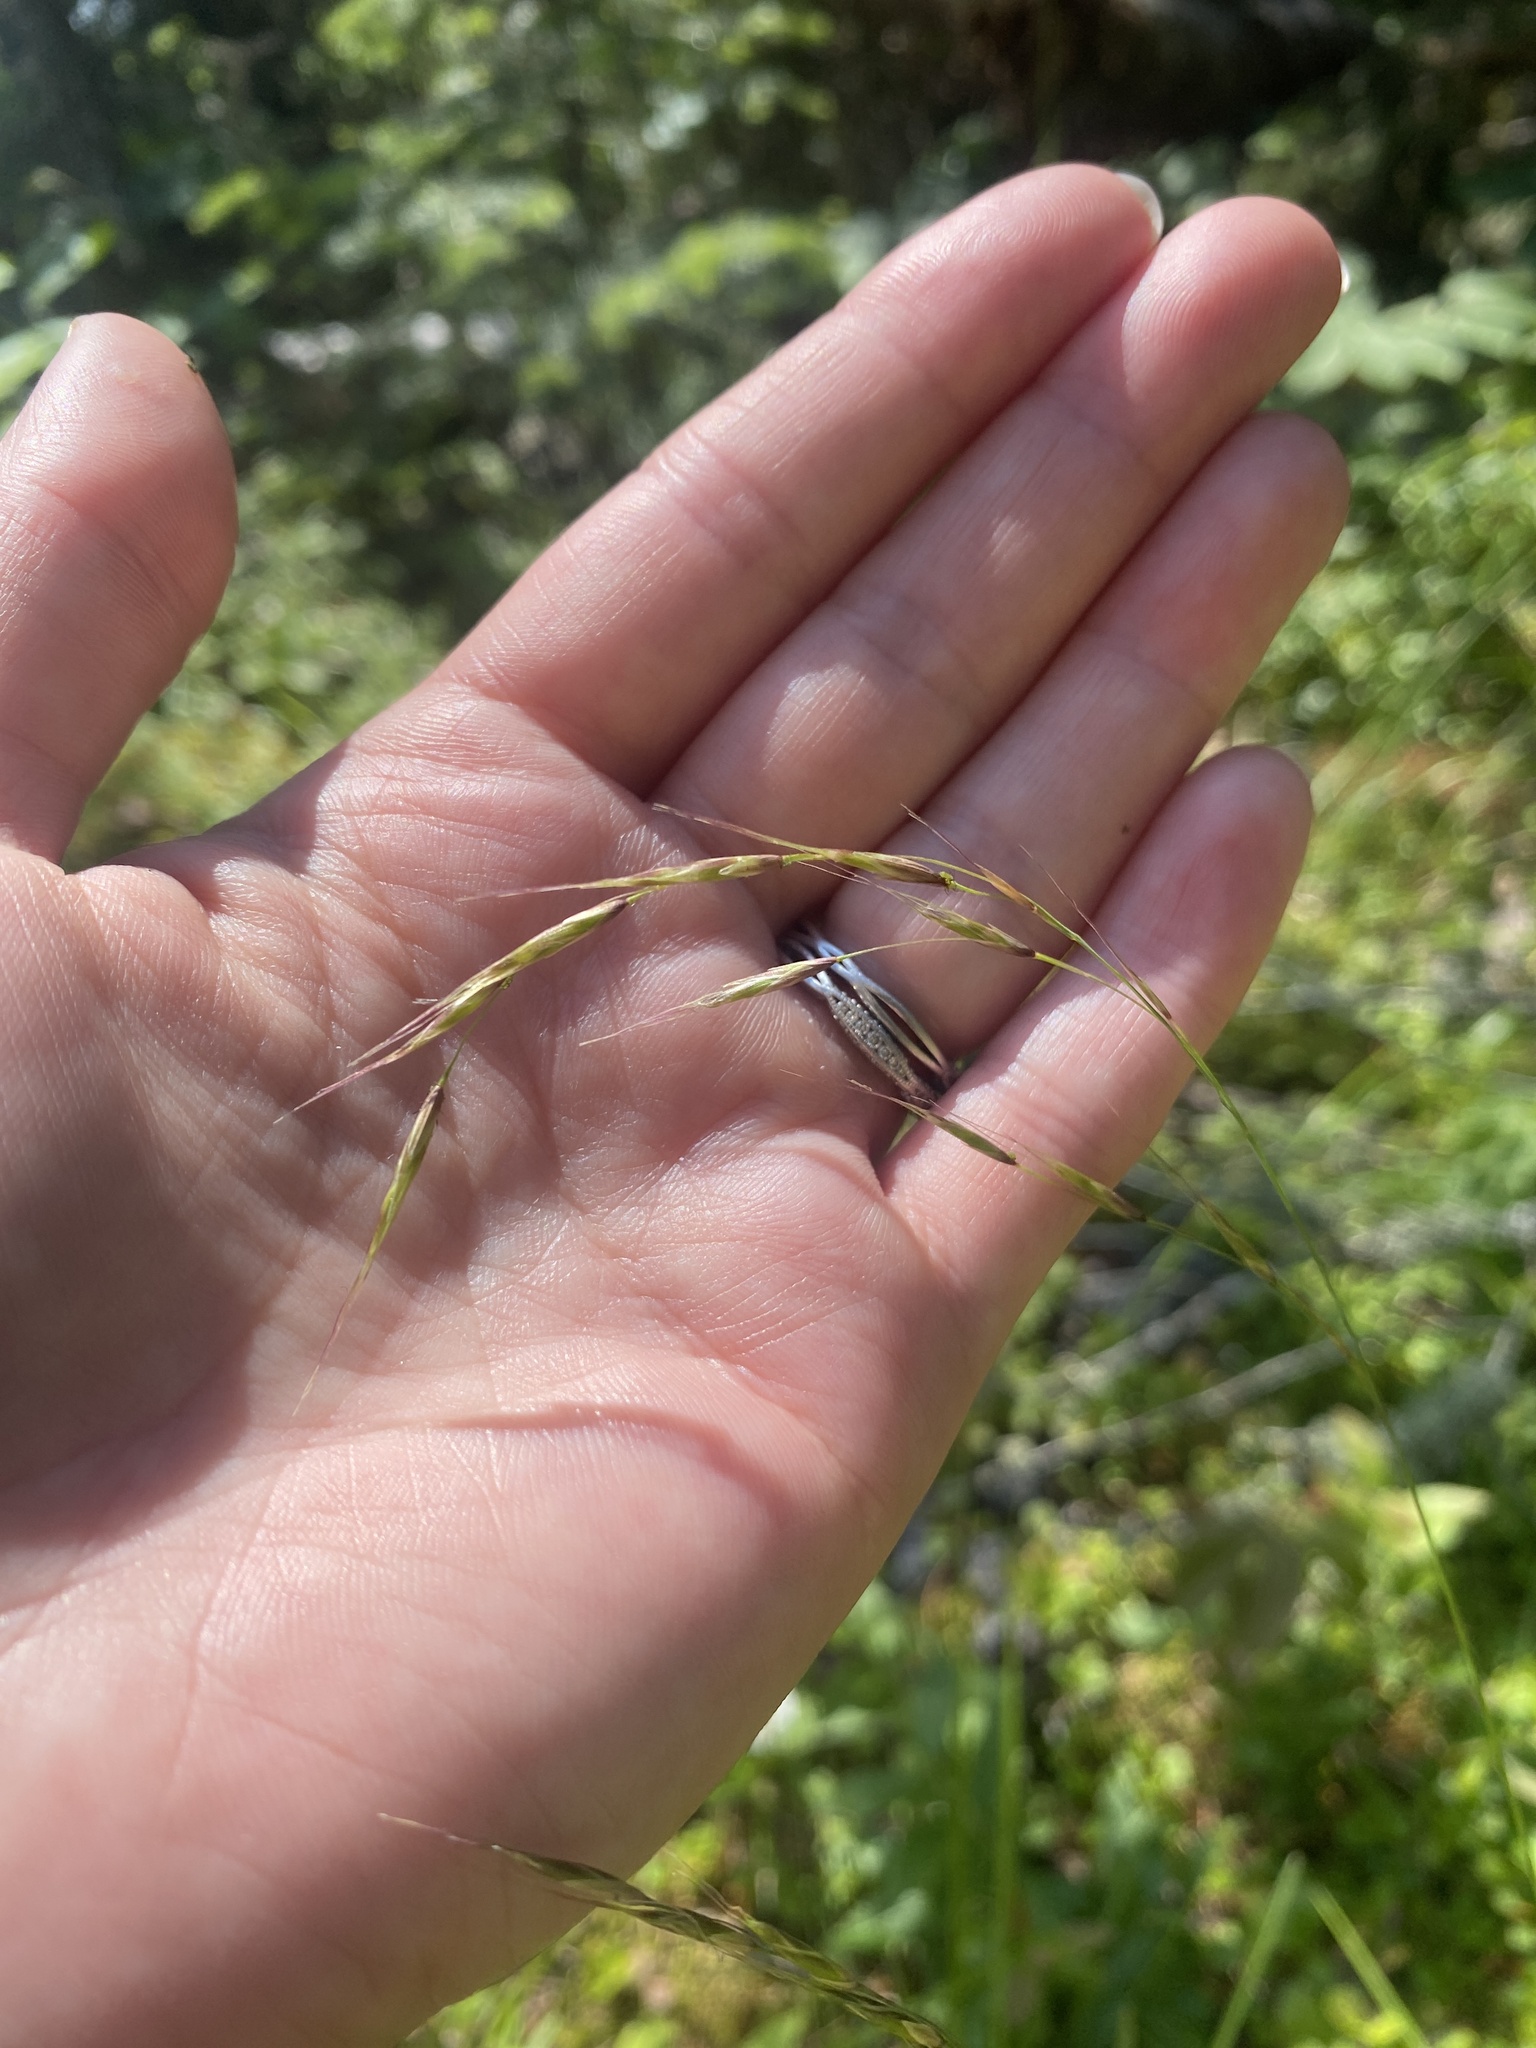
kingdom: Plantae
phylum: Tracheophyta
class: Liliopsida
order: Poales
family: Poaceae
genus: Schizachne
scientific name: Schizachne purpurascens
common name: False melic
